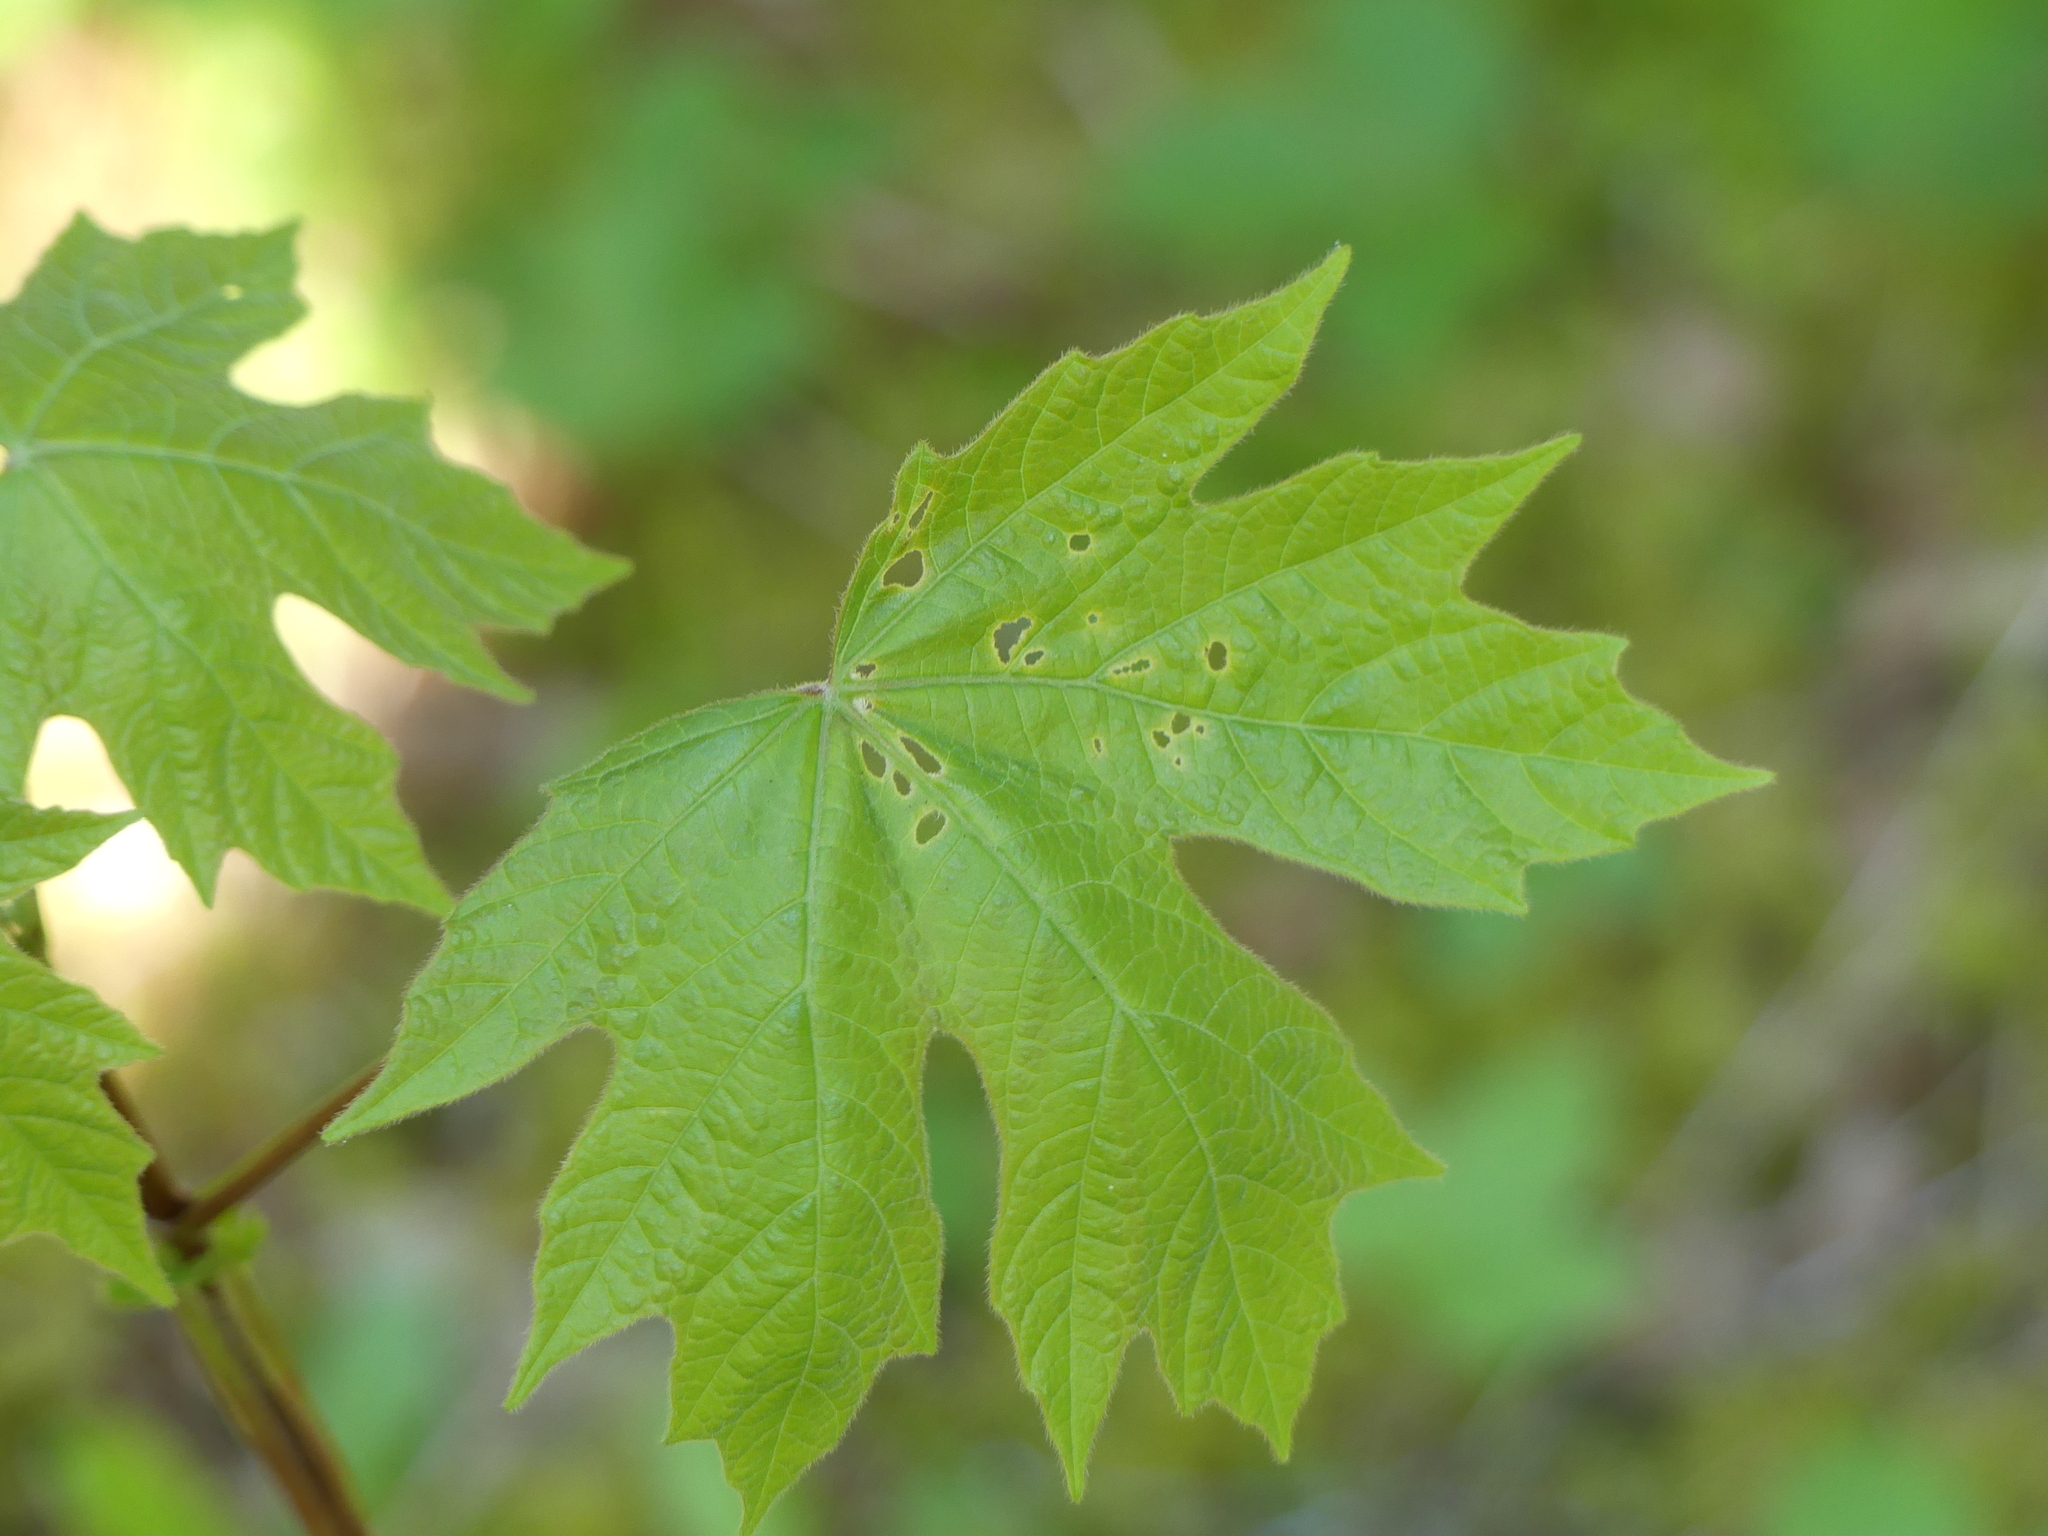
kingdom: Plantae
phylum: Tracheophyta
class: Magnoliopsida
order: Sapindales
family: Sapindaceae
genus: Acer
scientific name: Acer macrophyllum
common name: Oregon maple
